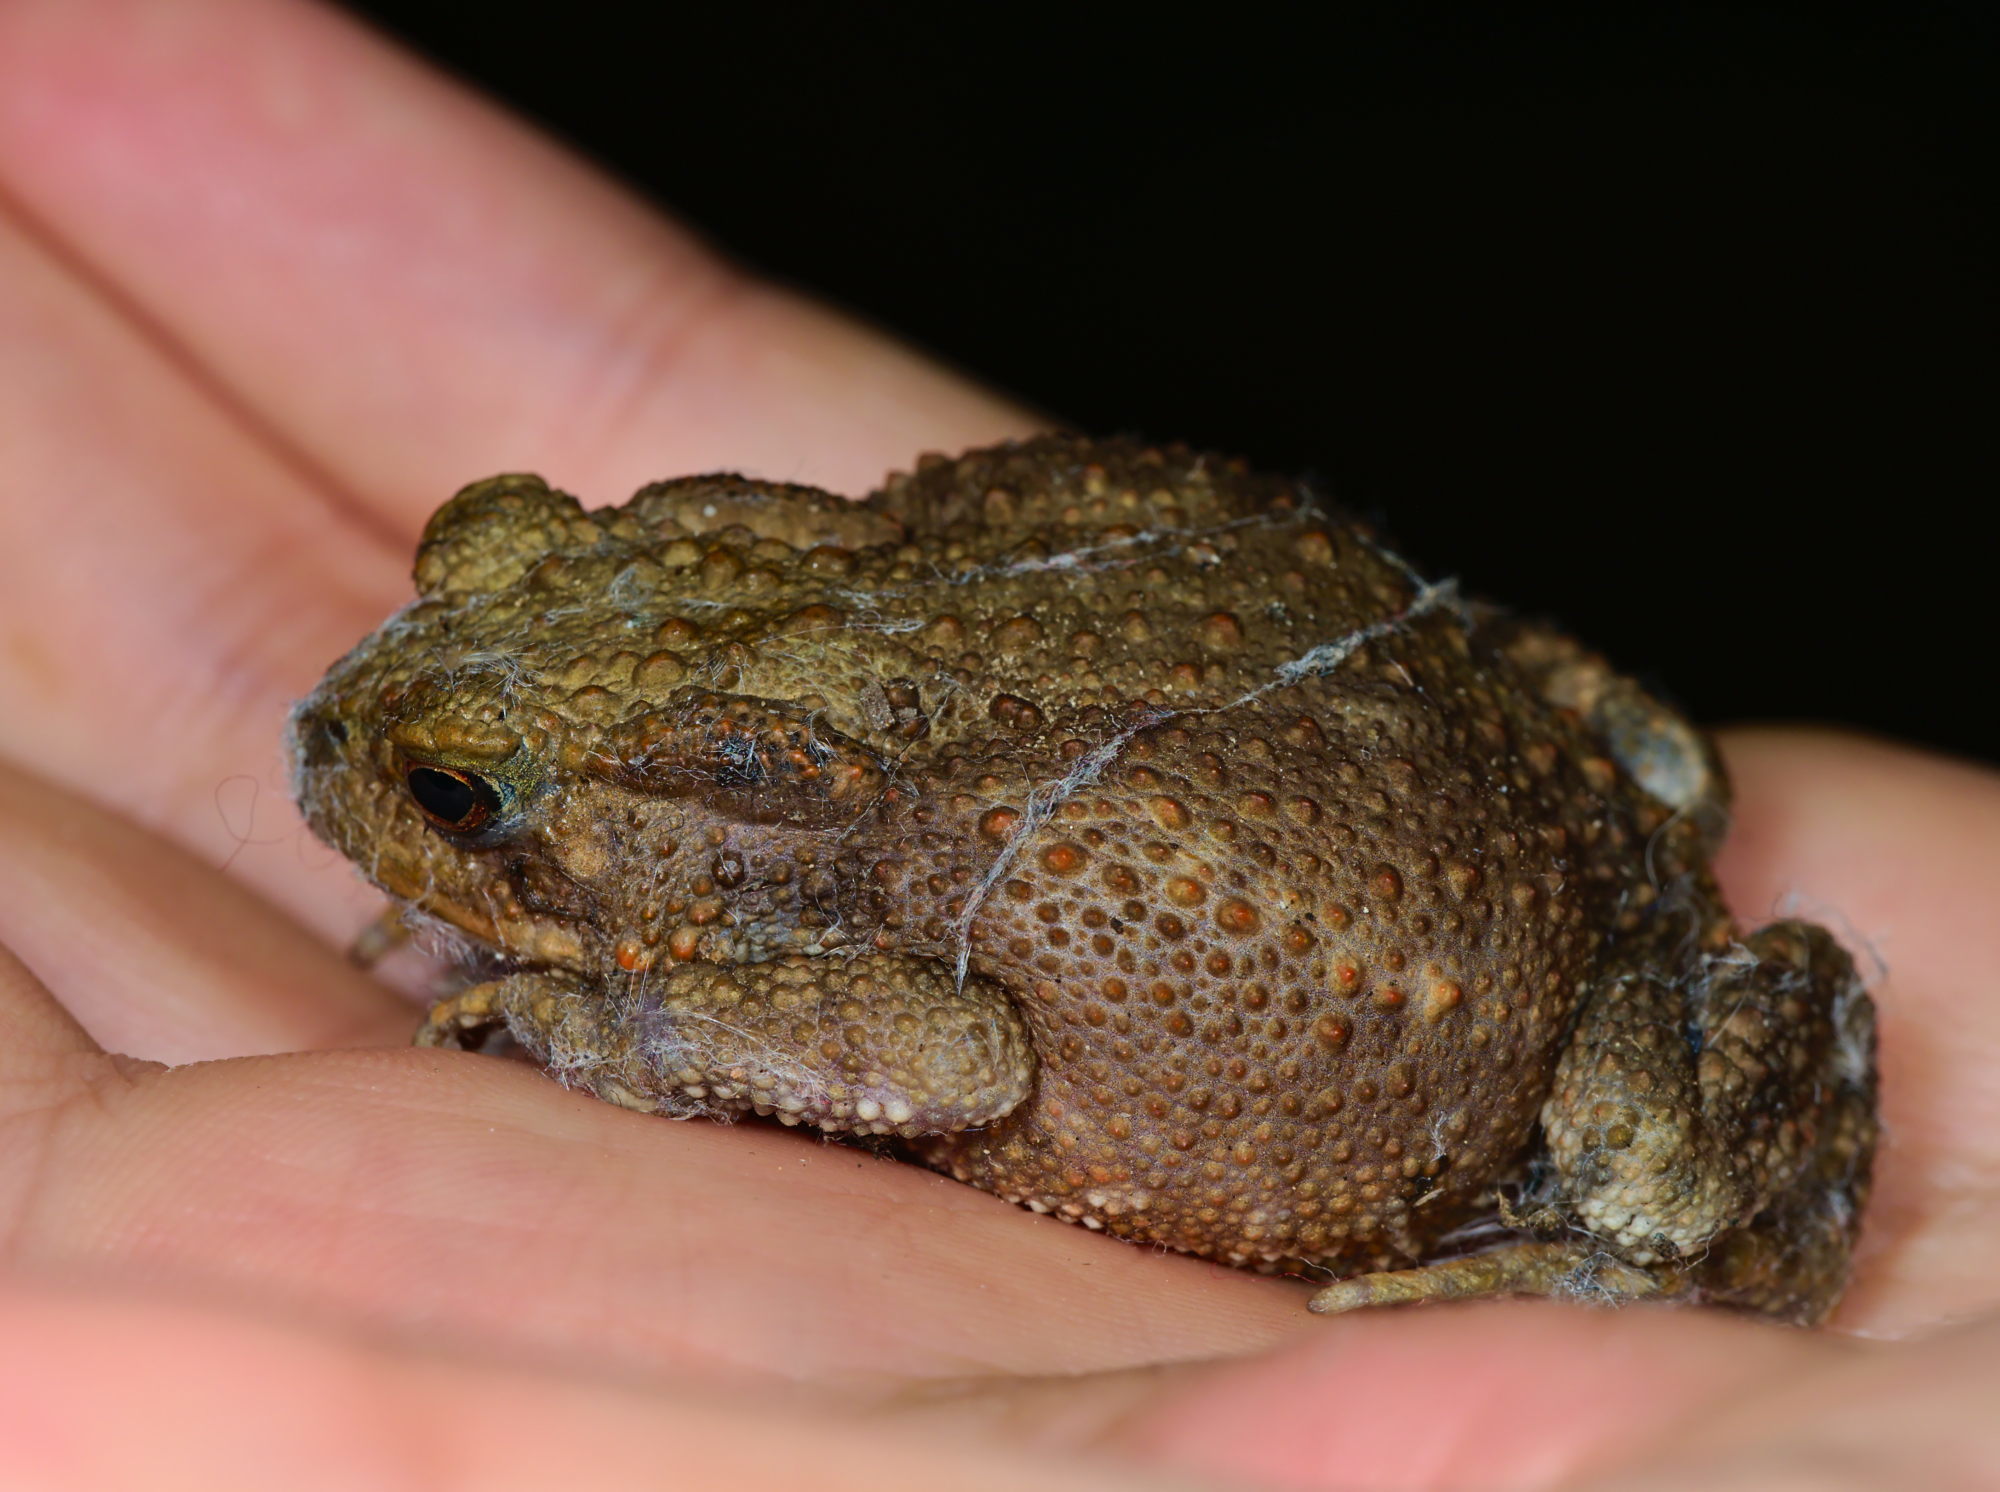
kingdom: Animalia
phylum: Chordata
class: Amphibia
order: Anura
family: Bufonidae
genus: Bufo
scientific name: Bufo bufo
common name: Common toad
